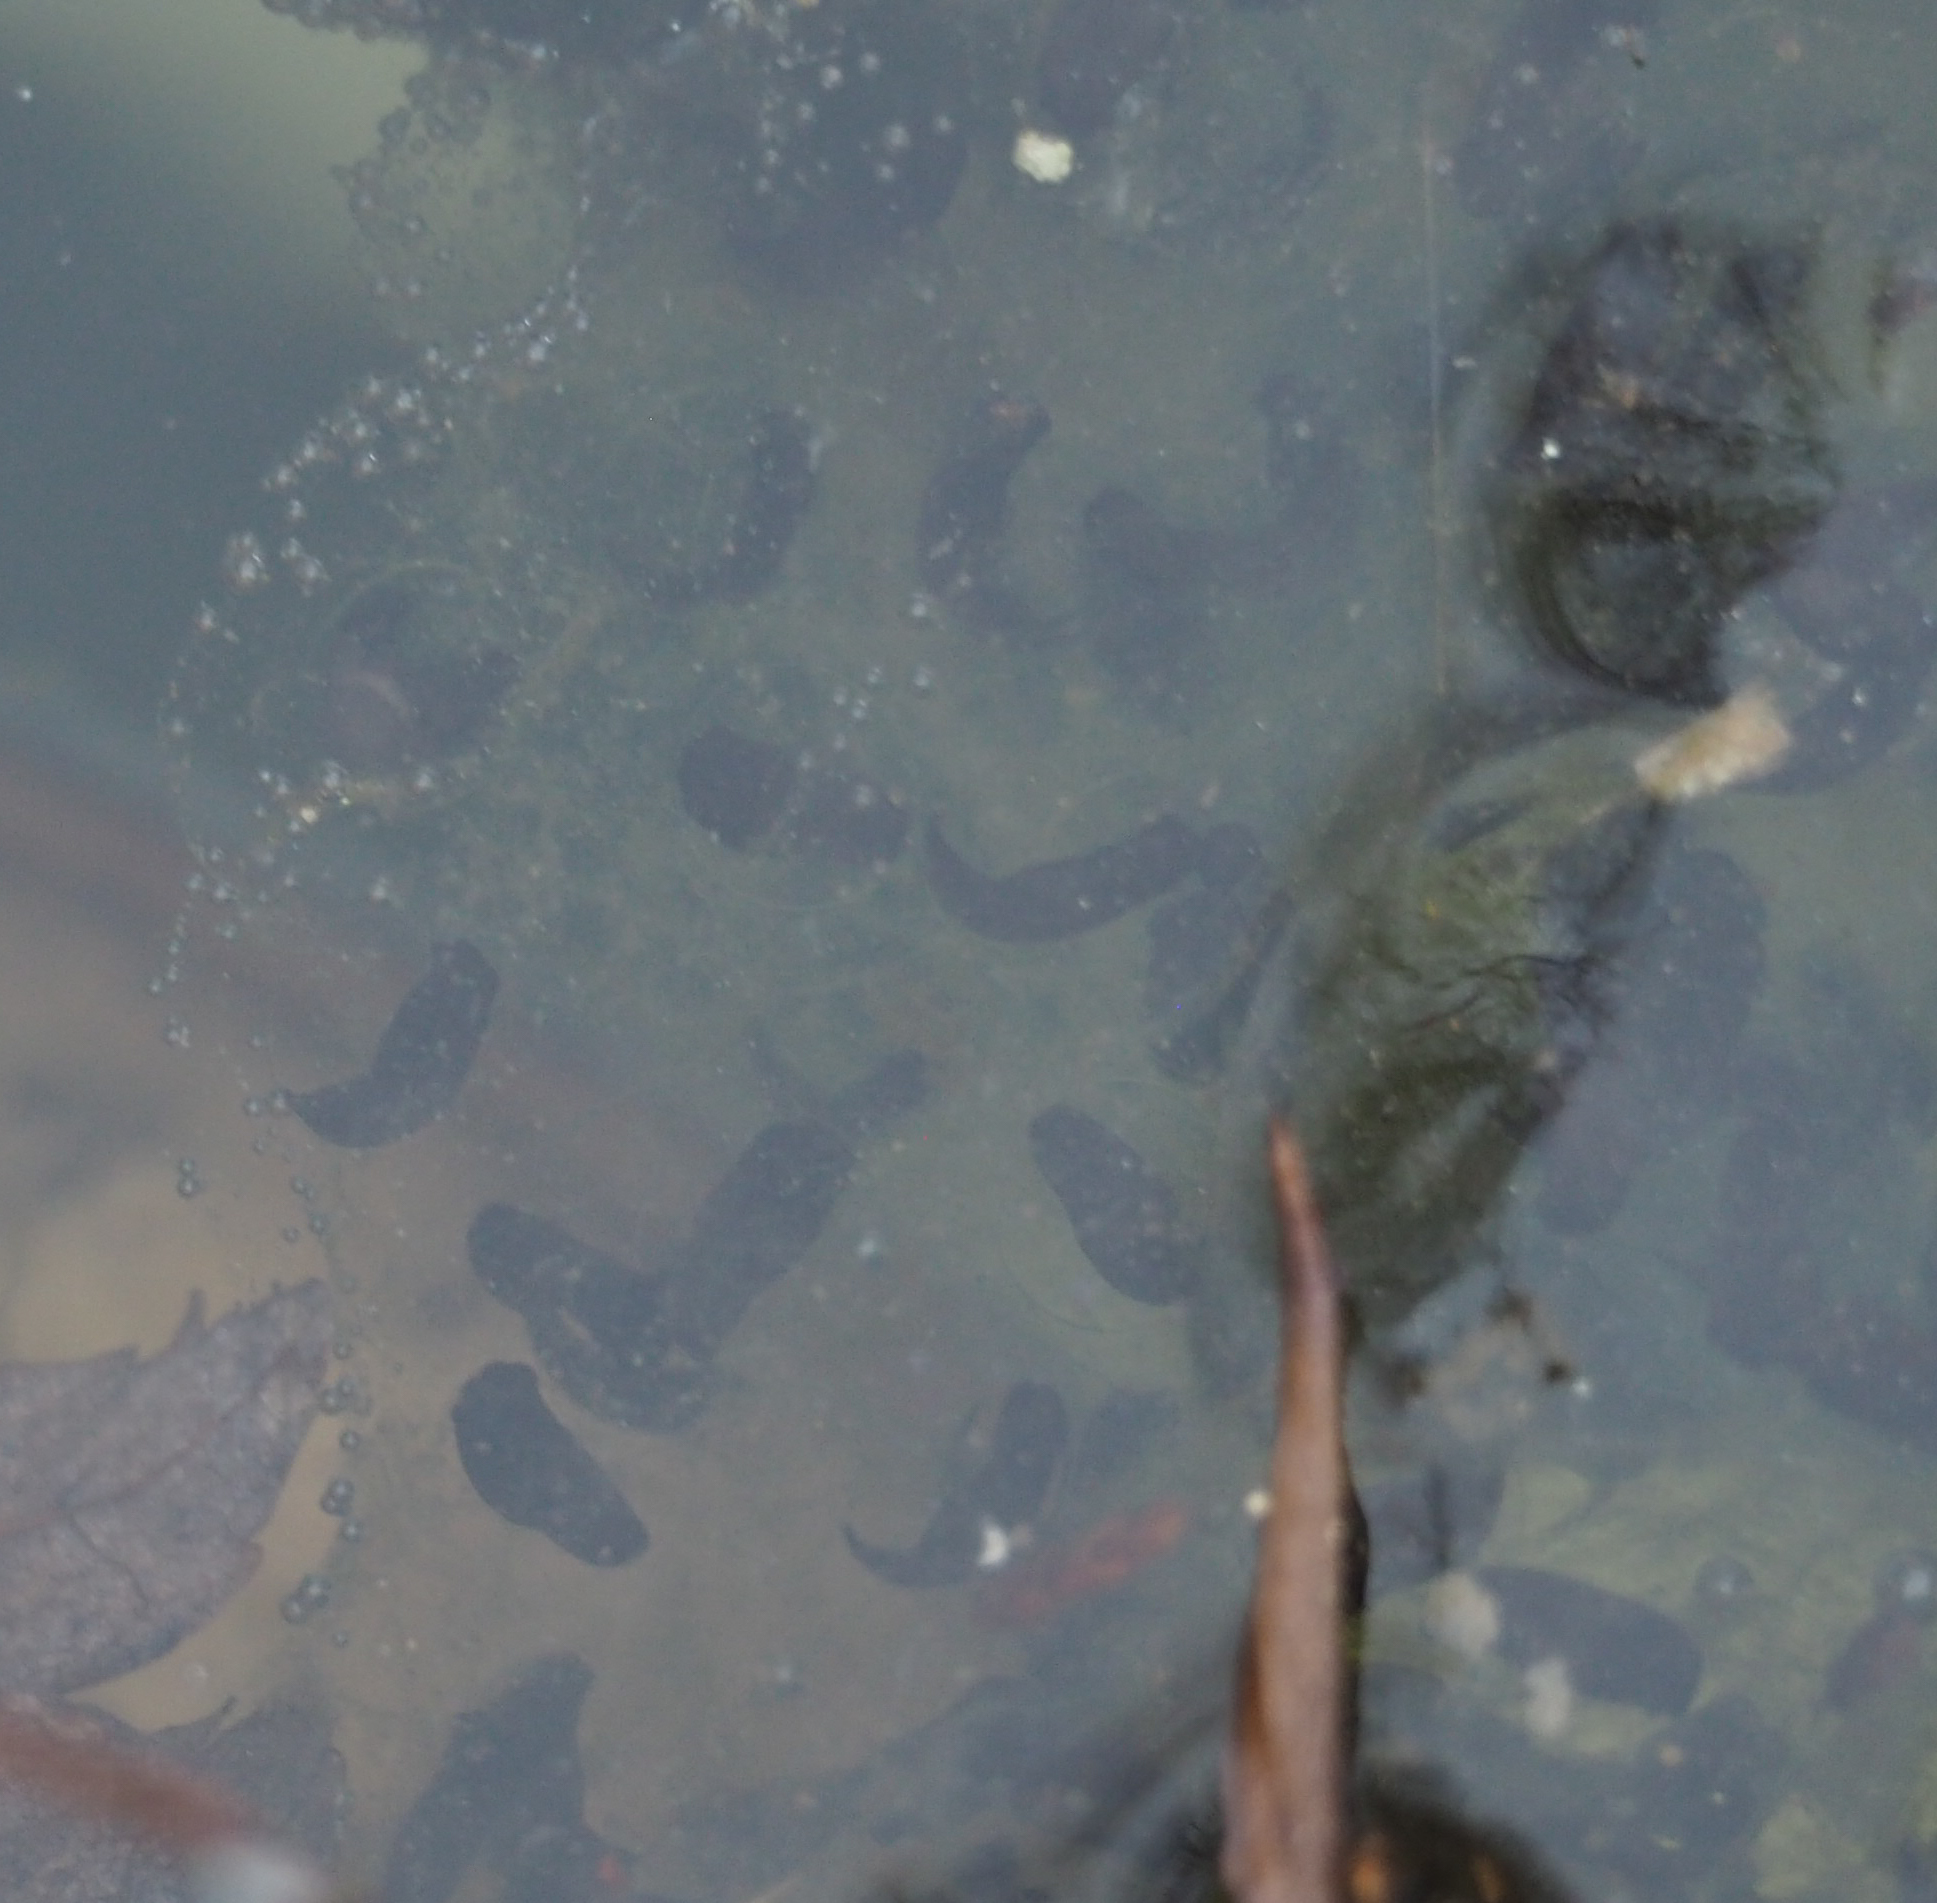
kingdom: Animalia
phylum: Chordata
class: Amphibia
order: Anura
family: Ranidae
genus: Lithobates
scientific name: Lithobates sylvaticus
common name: Wood frog
